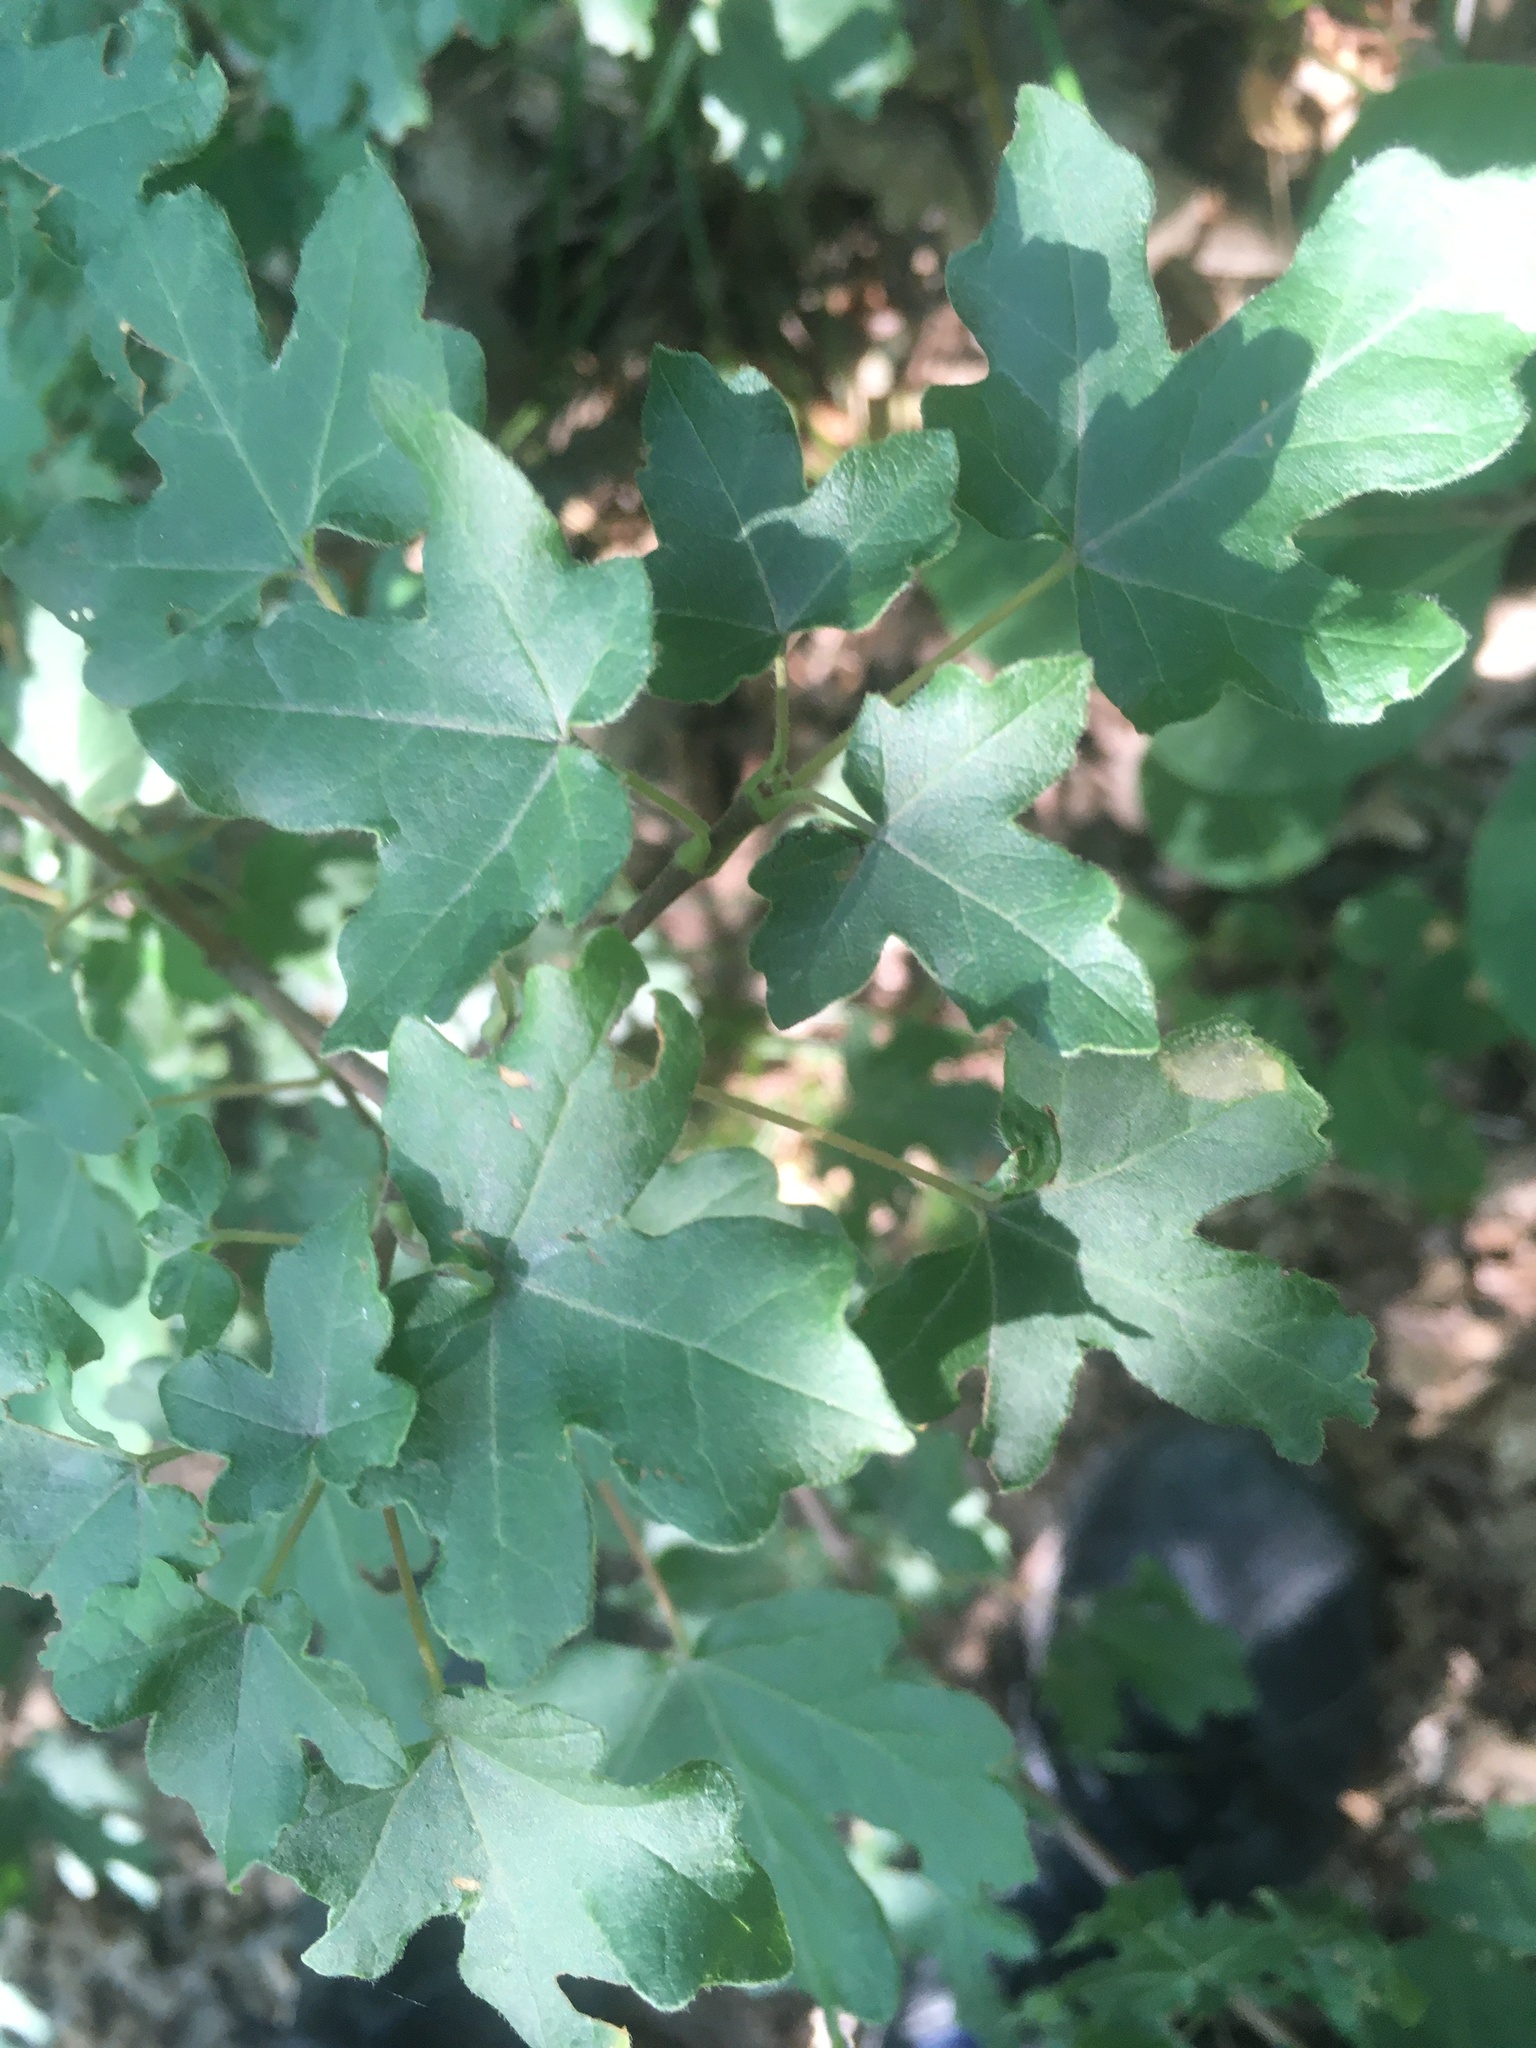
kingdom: Plantae
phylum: Tracheophyta
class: Magnoliopsida
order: Sapindales
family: Sapindaceae
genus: Acer
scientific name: Acer campestre
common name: Field maple
